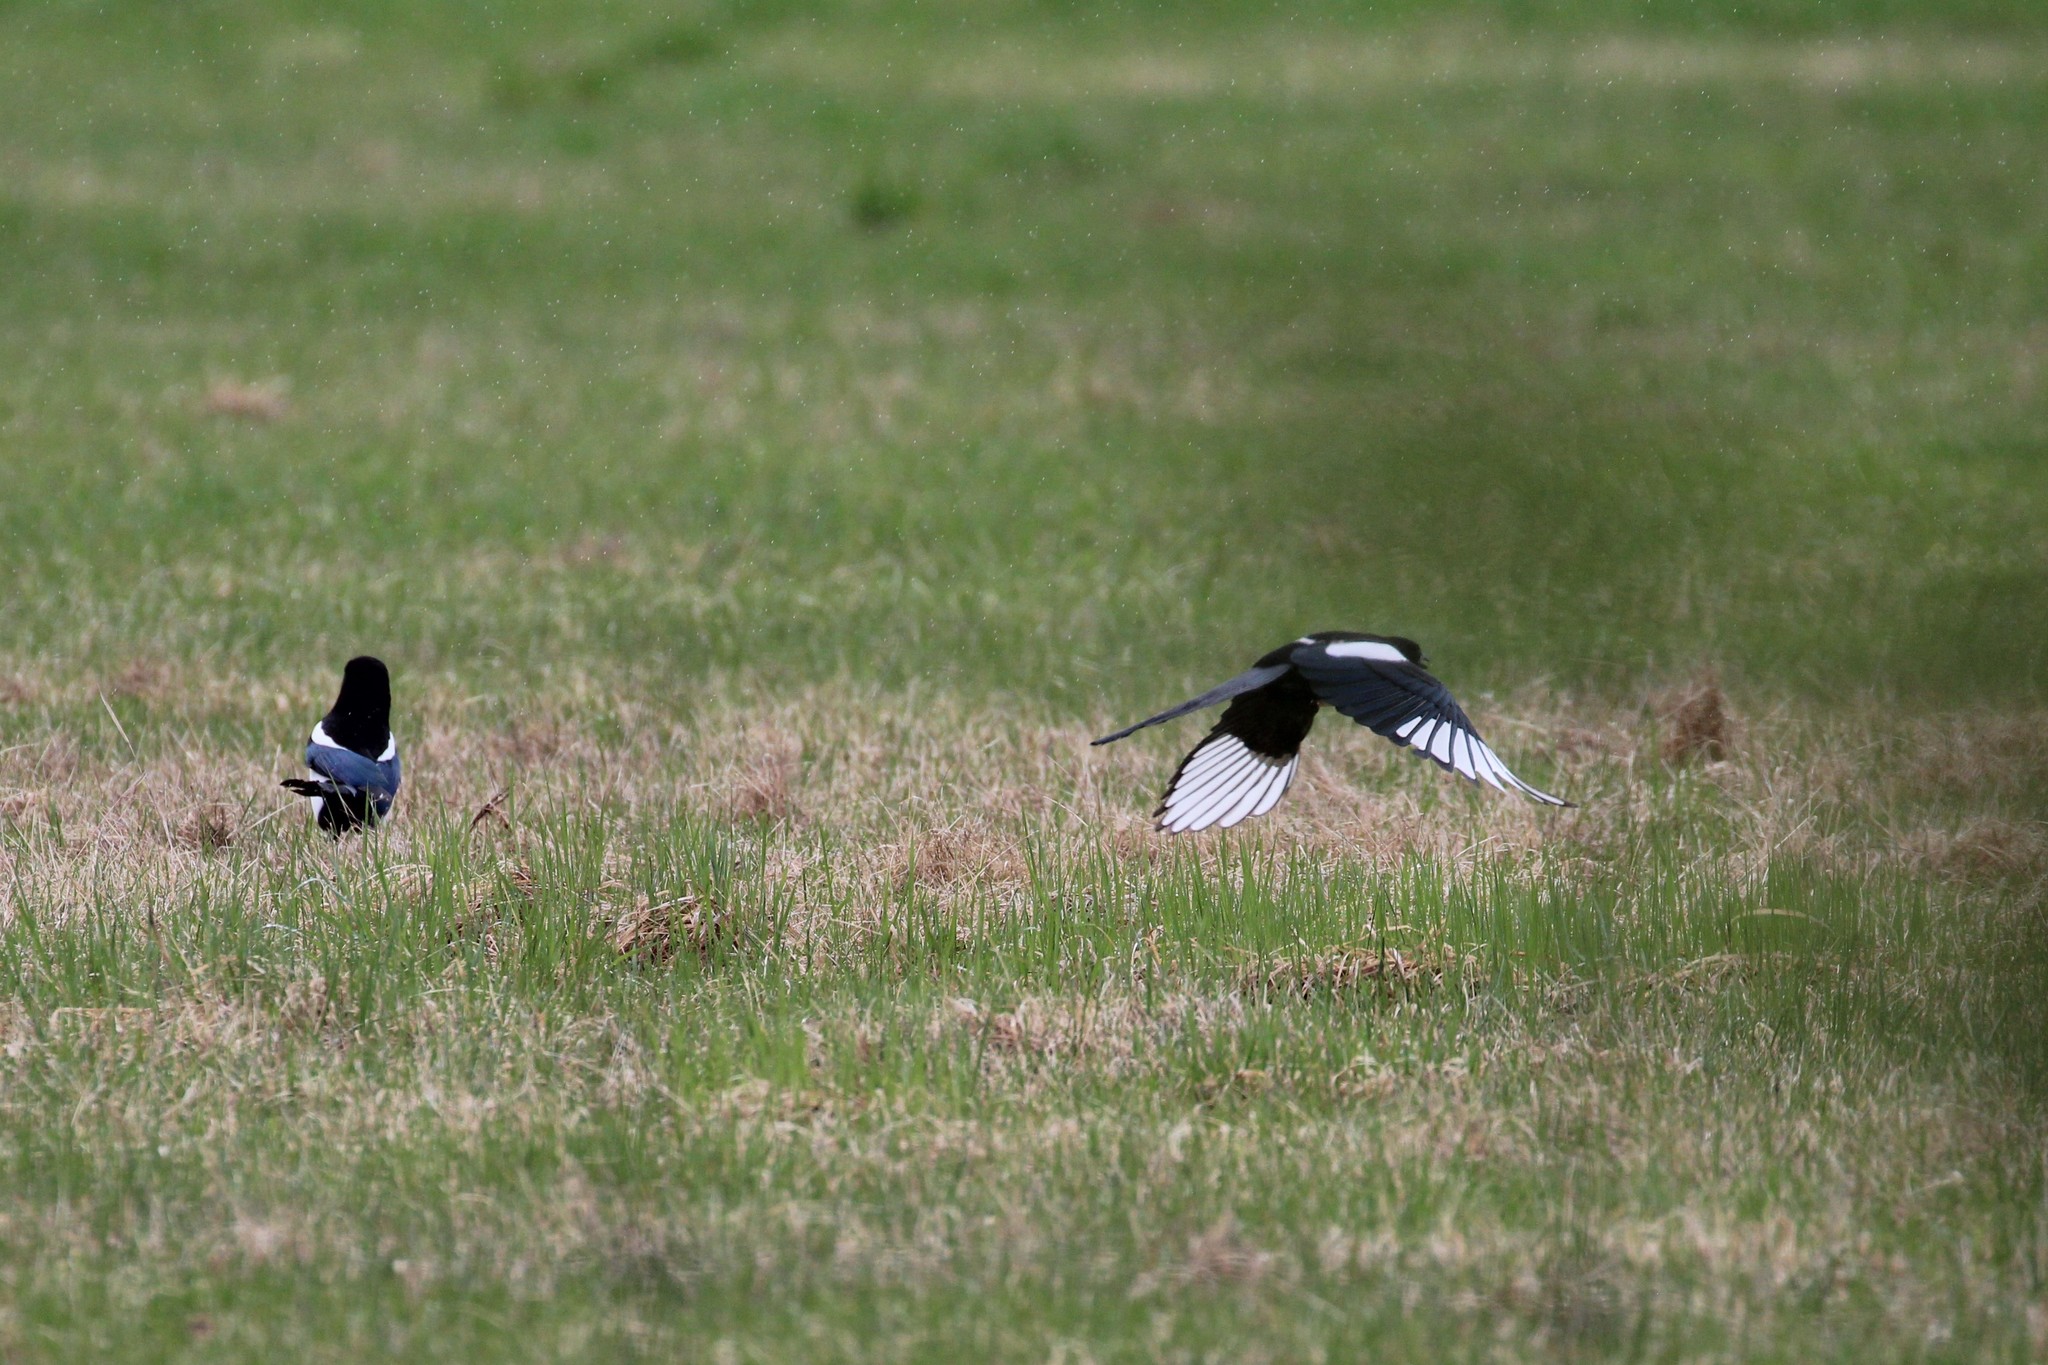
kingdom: Animalia
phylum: Chordata
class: Aves
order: Passeriformes
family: Corvidae
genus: Pica
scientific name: Pica hudsonia
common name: Black-billed magpie
